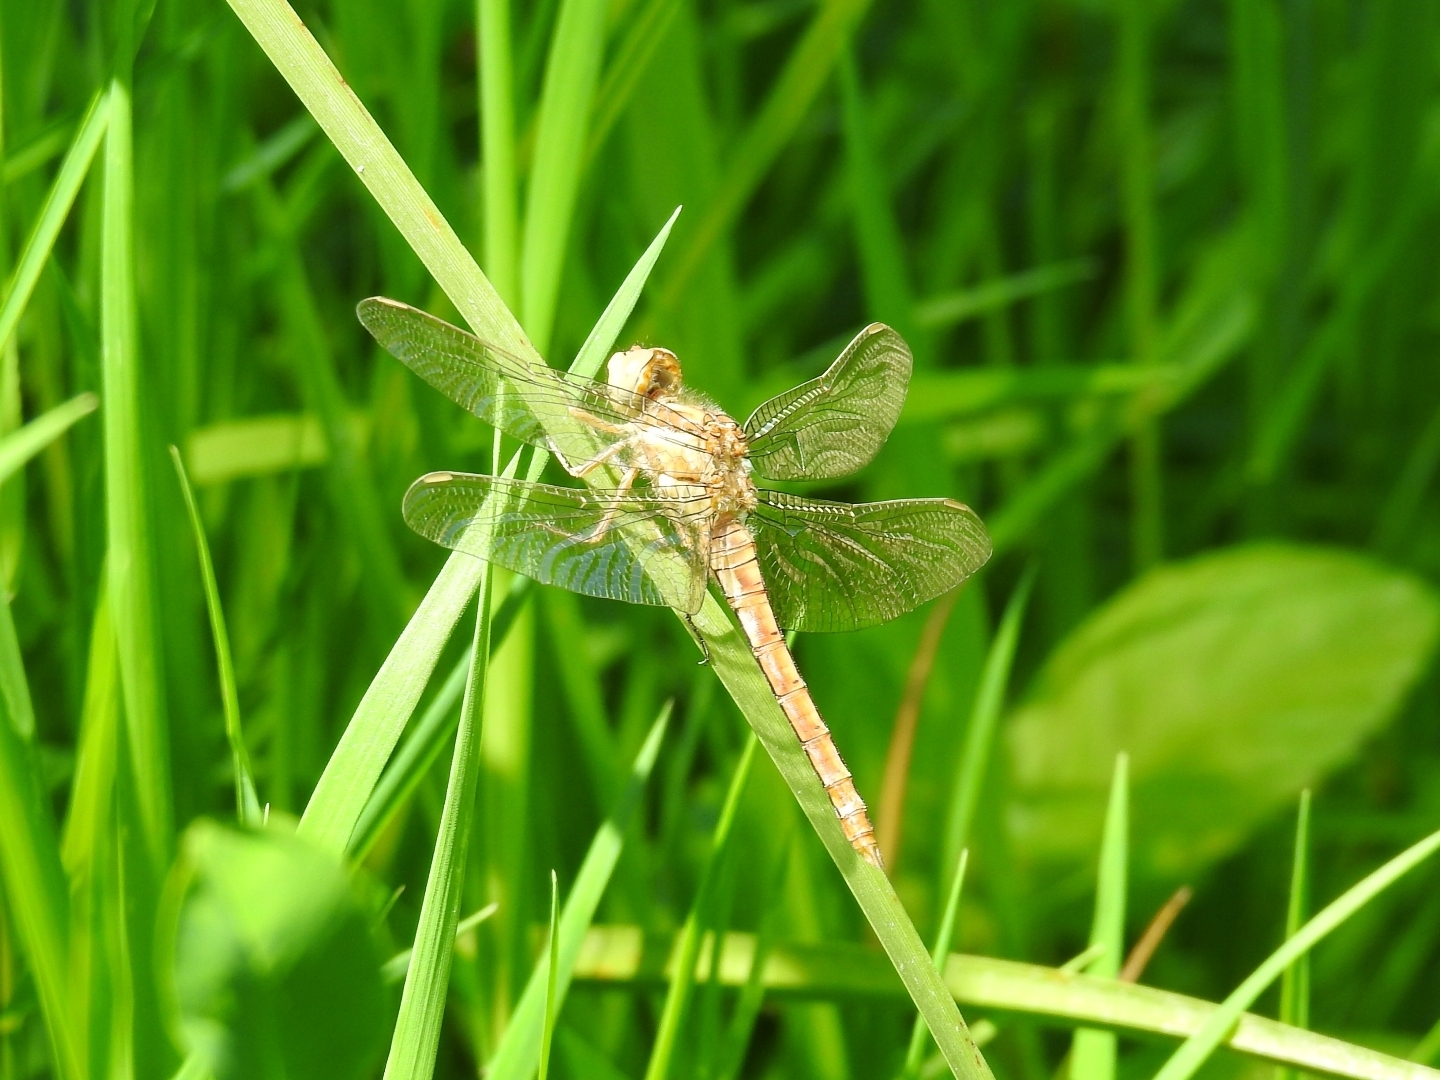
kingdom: Animalia
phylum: Arthropoda
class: Insecta
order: Odonata
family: Libellulidae
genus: Orthetrum
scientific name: Orthetrum brunneum
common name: Southern skimmer
